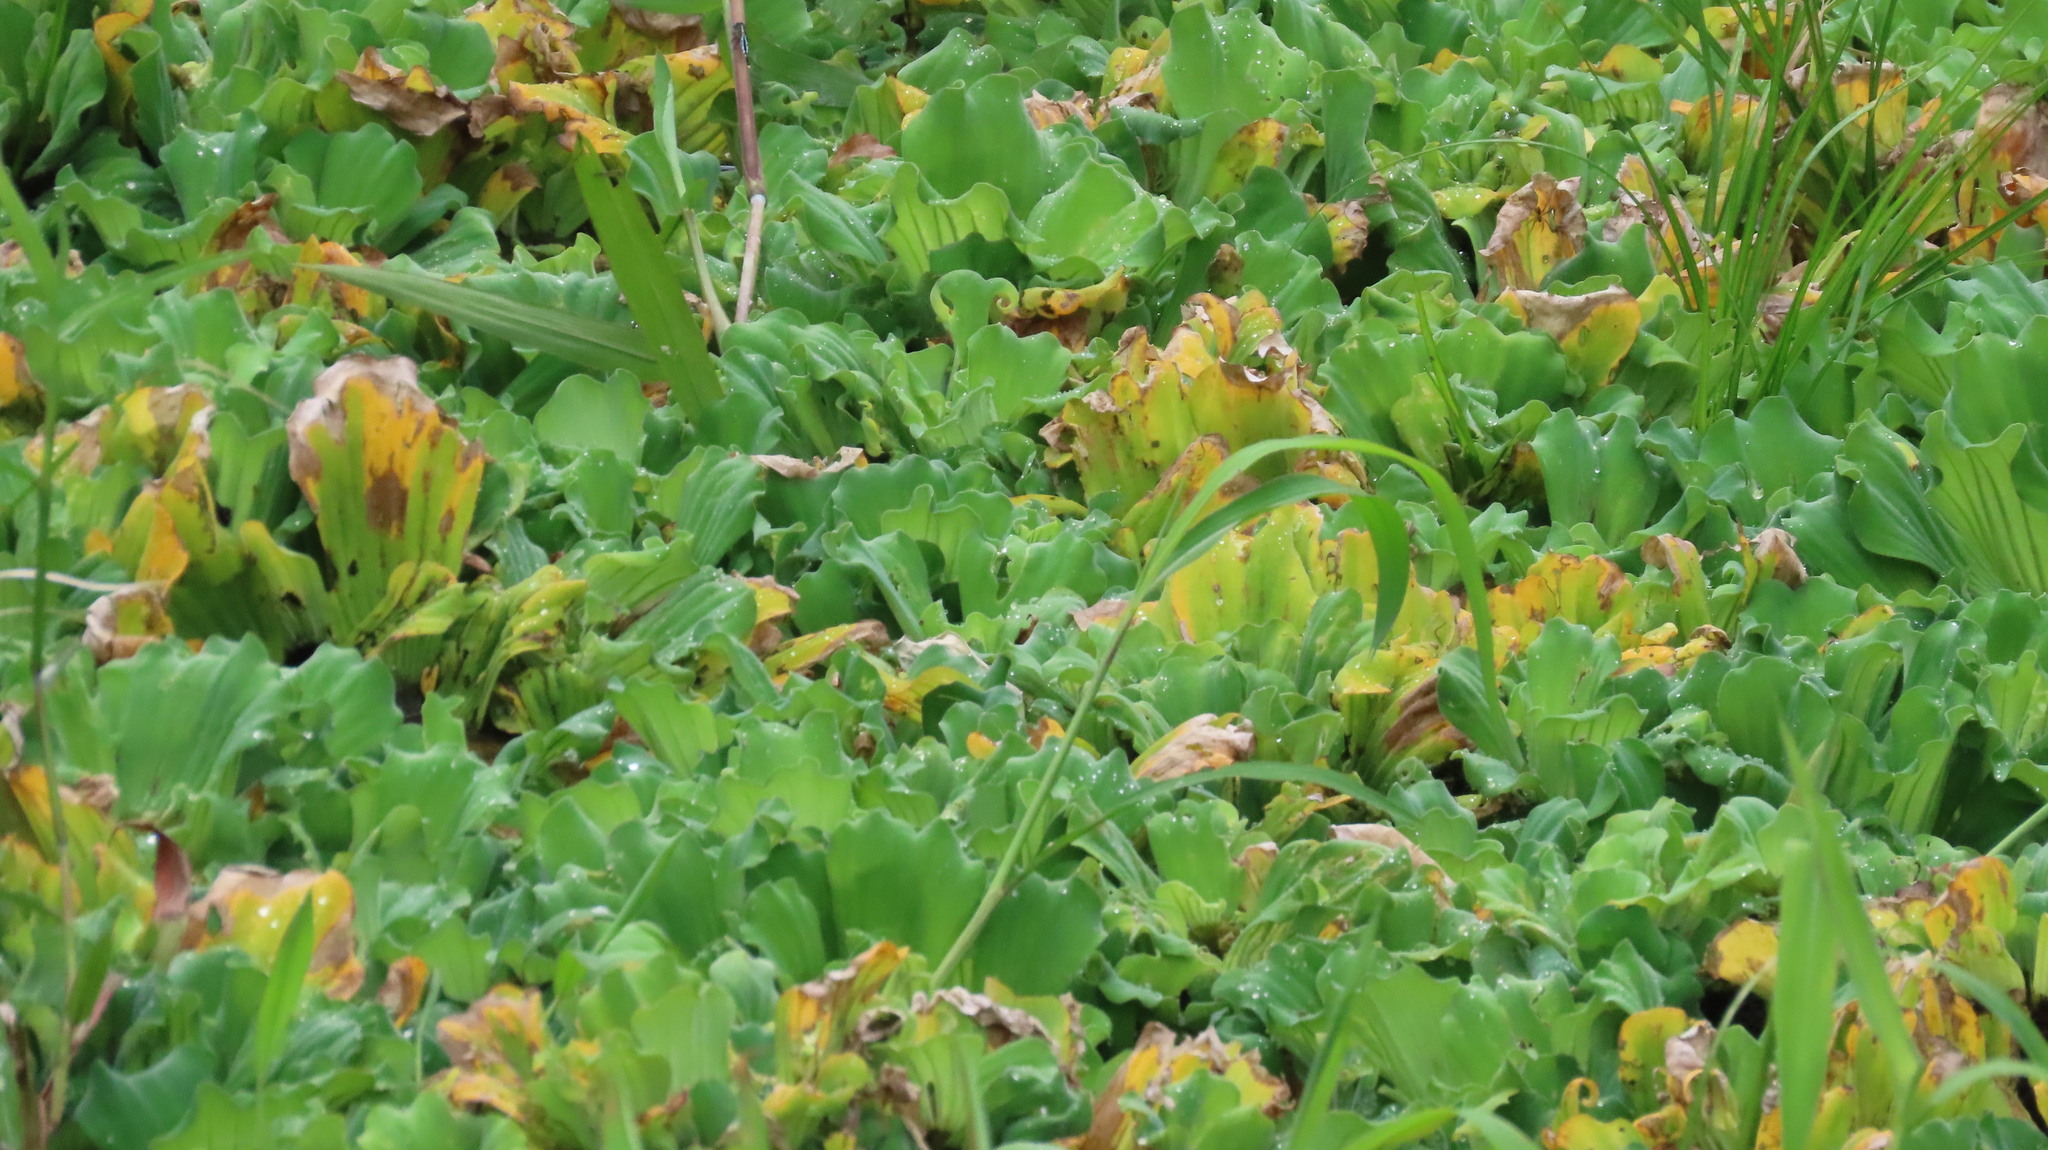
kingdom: Plantae
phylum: Tracheophyta
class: Liliopsida
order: Alismatales
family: Araceae
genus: Pistia
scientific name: Pistia stratiotes
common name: Water lettuce
